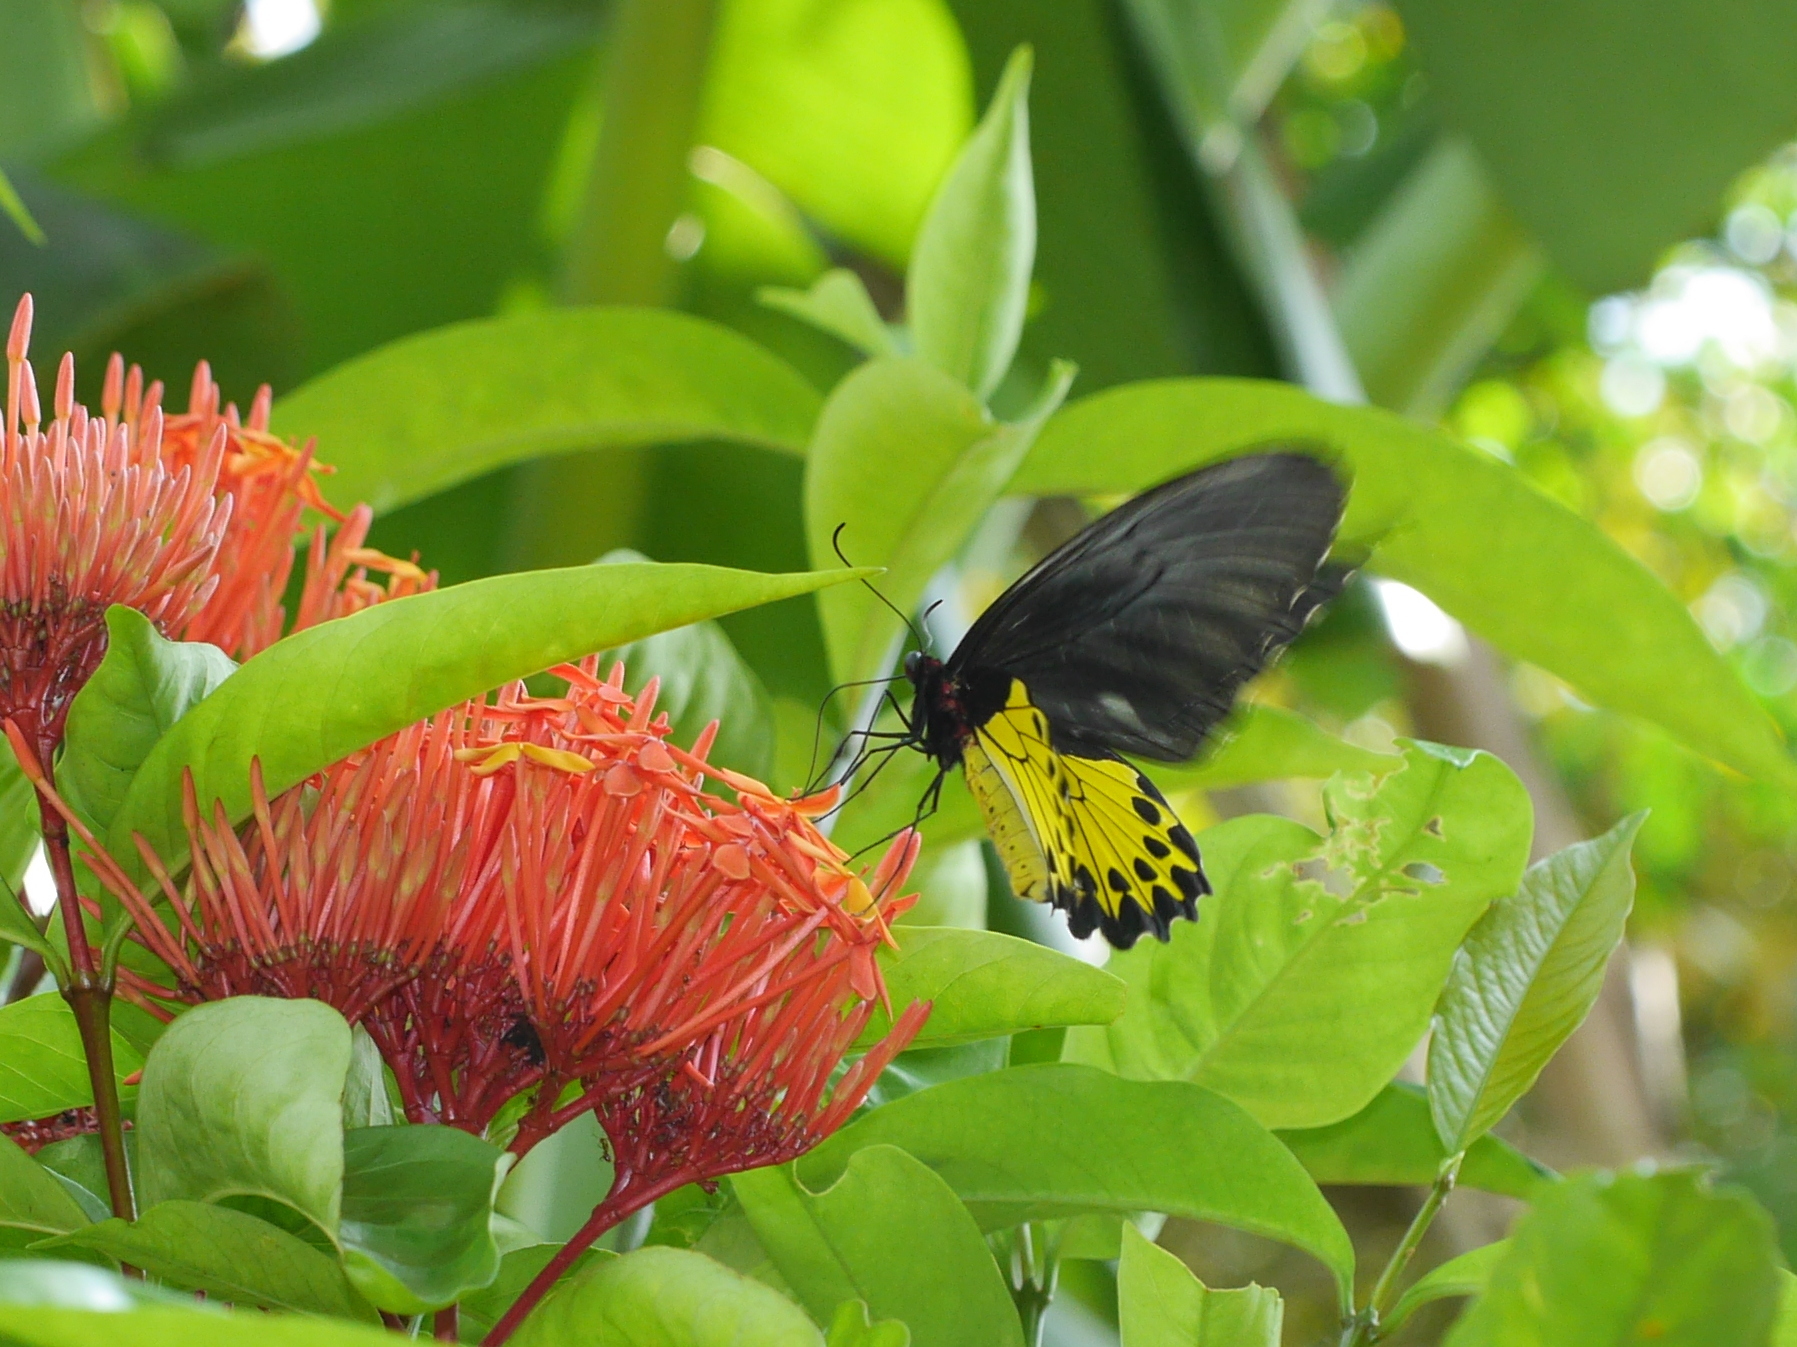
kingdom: Animalia
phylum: Arthropoda
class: Insecta
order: Lepidoptera
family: Papilionidae
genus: Troides
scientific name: Troides helena
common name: Common birdwing
